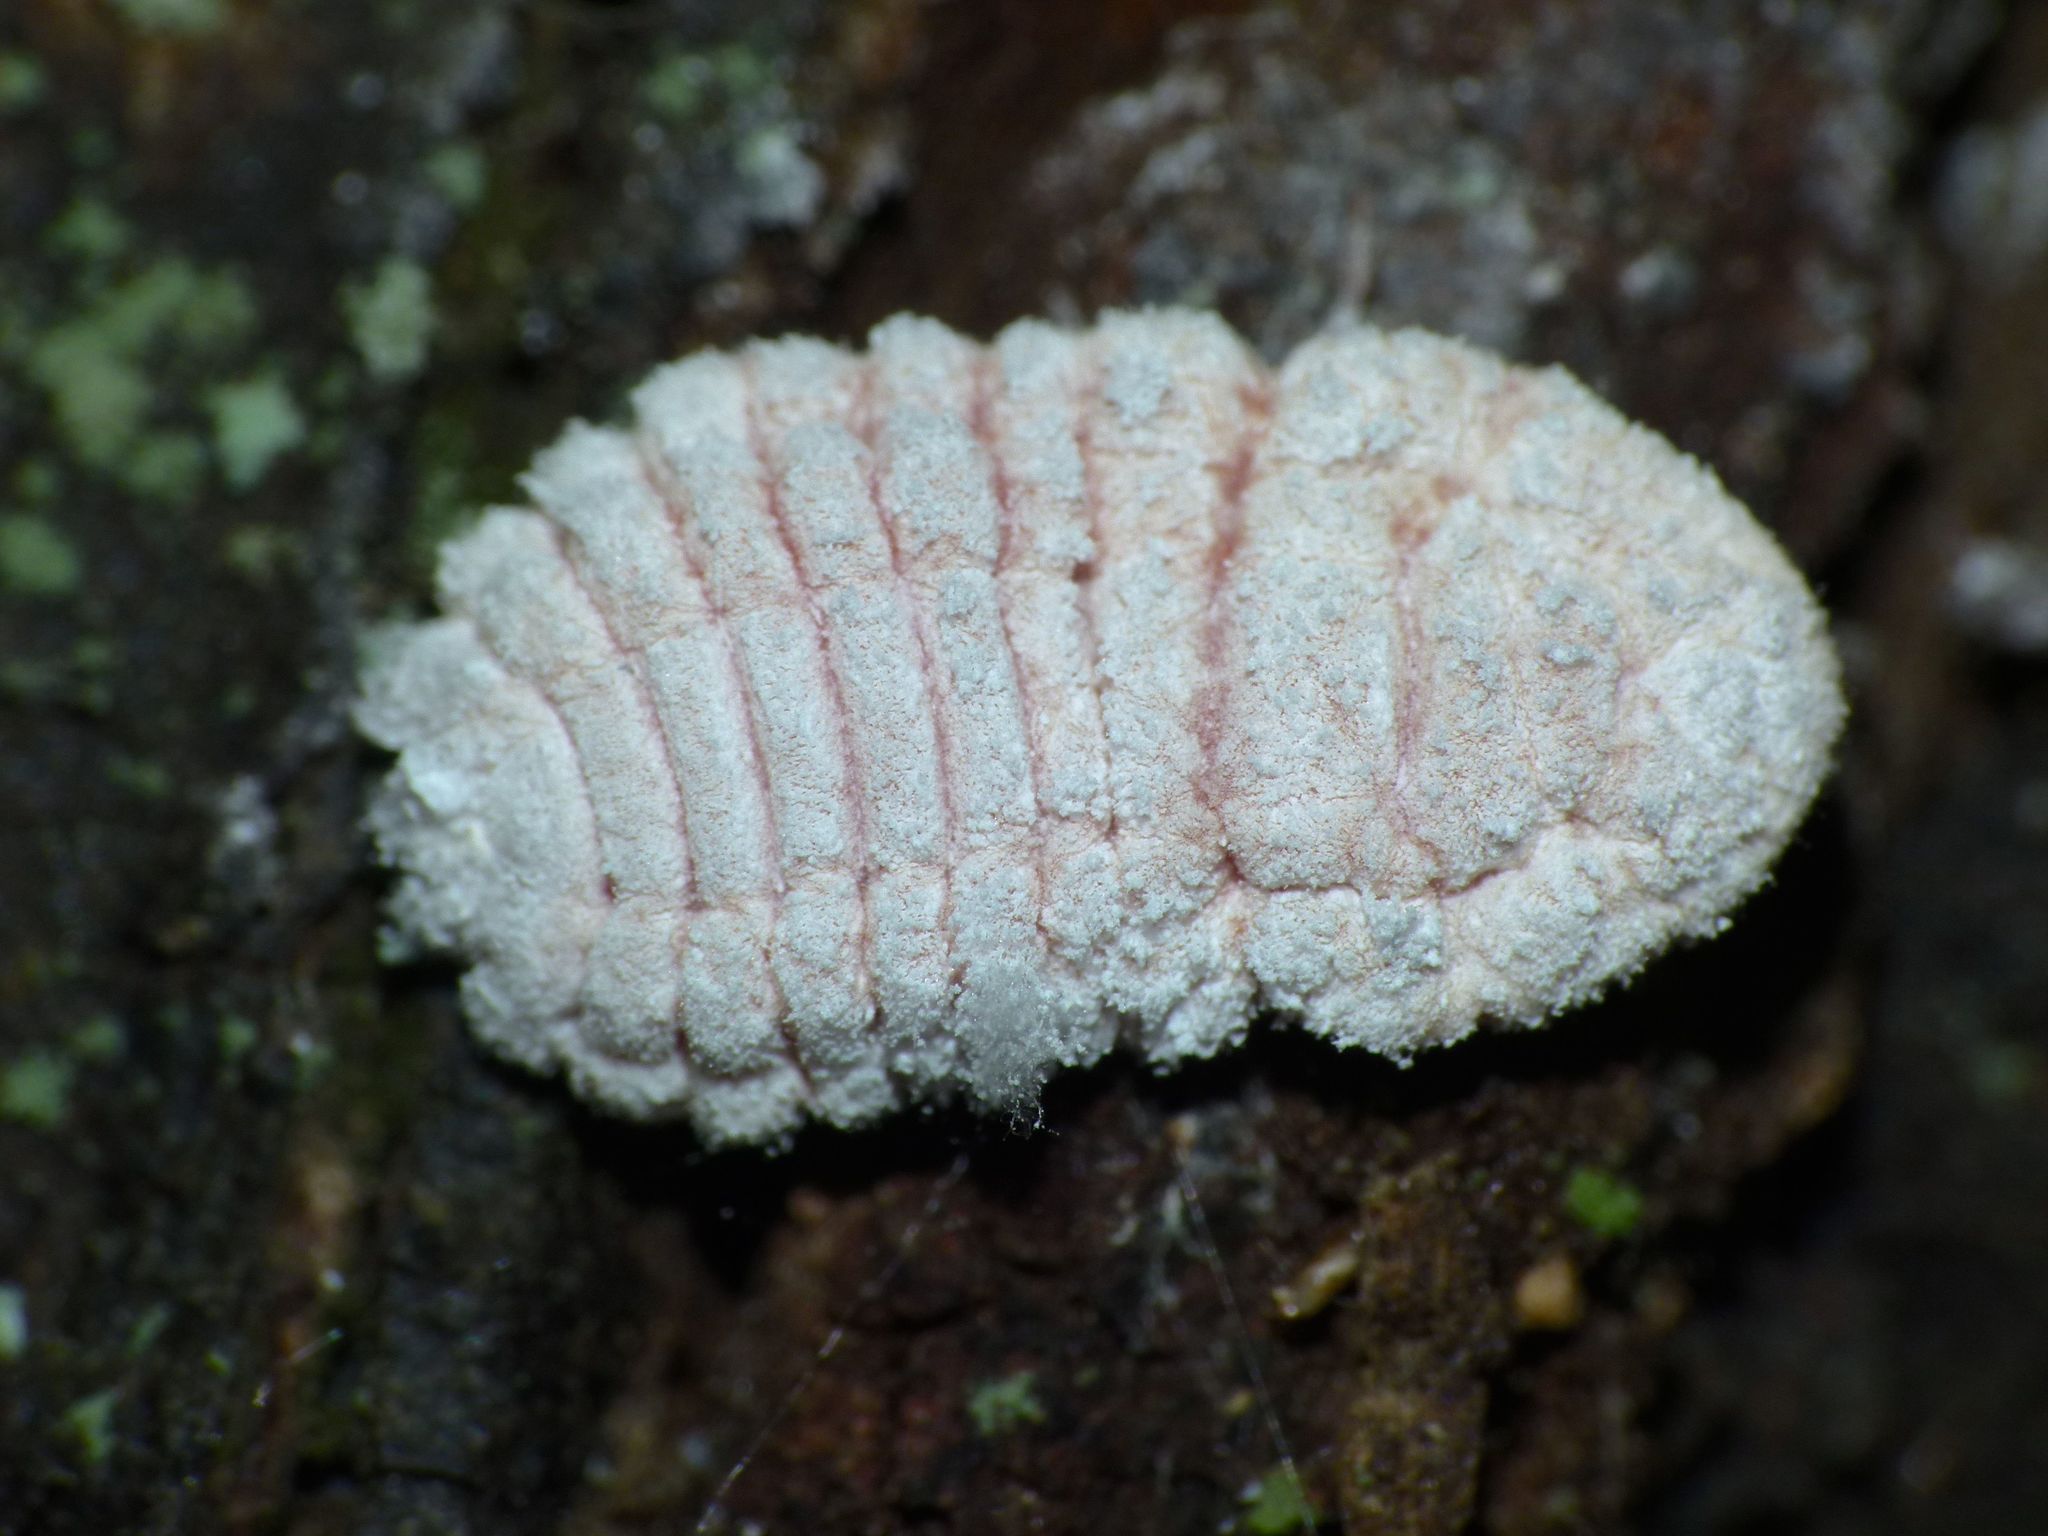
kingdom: Animalia
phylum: Arthropoda
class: Insecta
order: Hemiptera
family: Margarodidae
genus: Coelostomidia
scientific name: Coelostomidia zealandica
